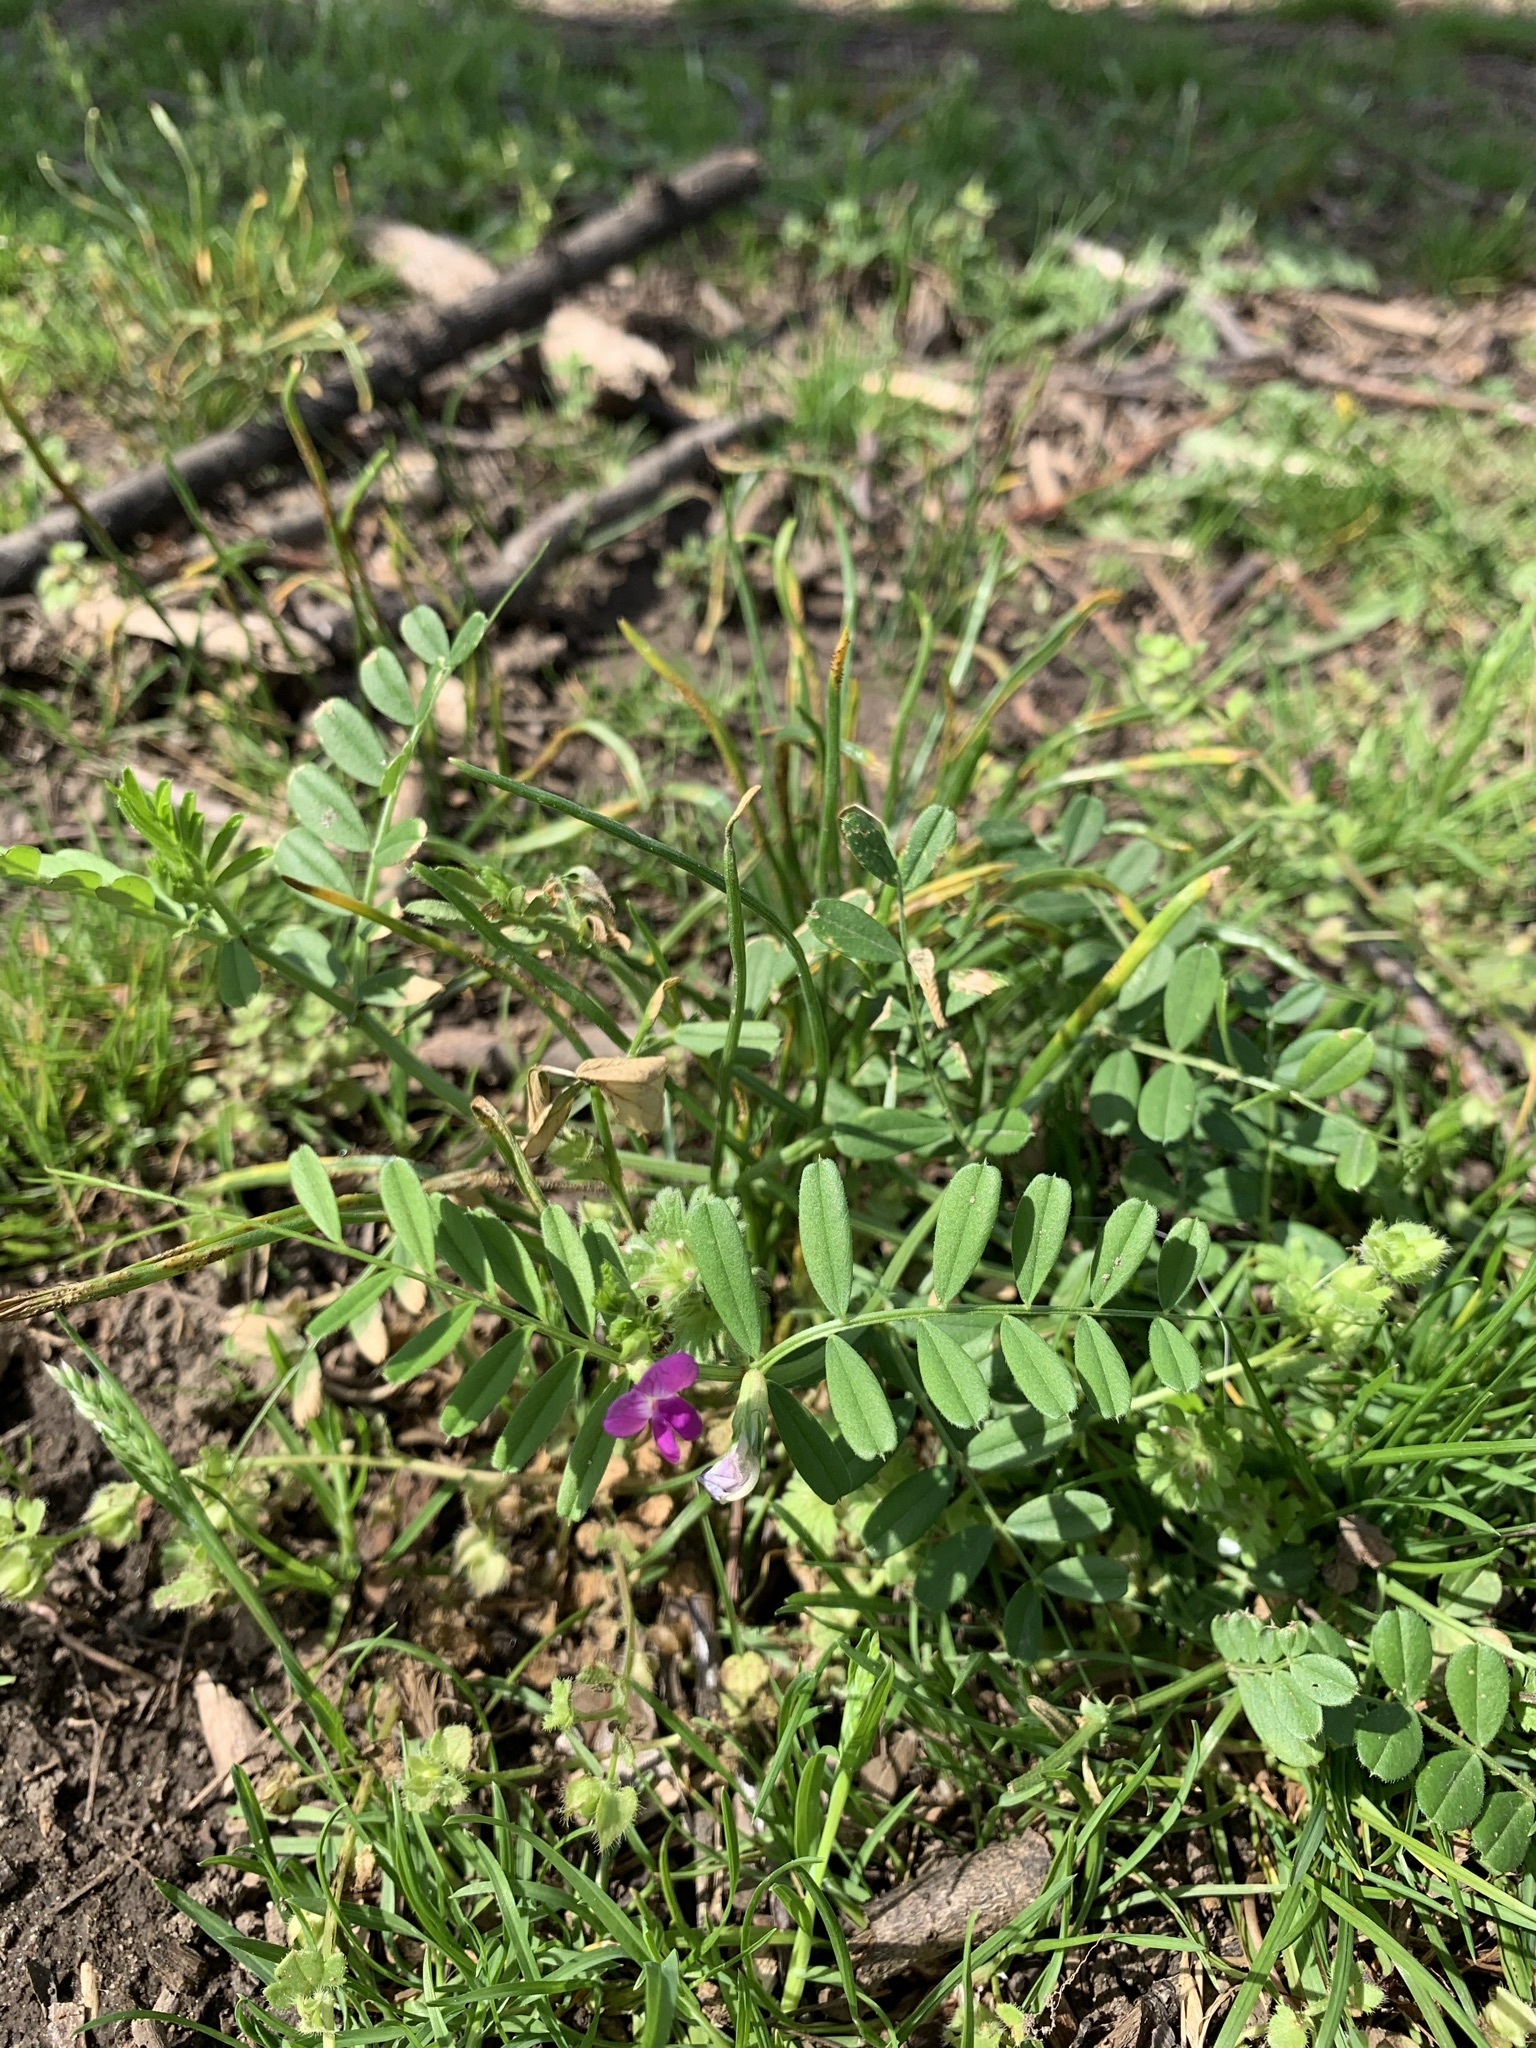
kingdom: Plantae
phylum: Tracheophyta
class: Magnoliopsida
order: Fabales
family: Fabaceae
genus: Vicia
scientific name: Vicia sativa
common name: Garden vetch
